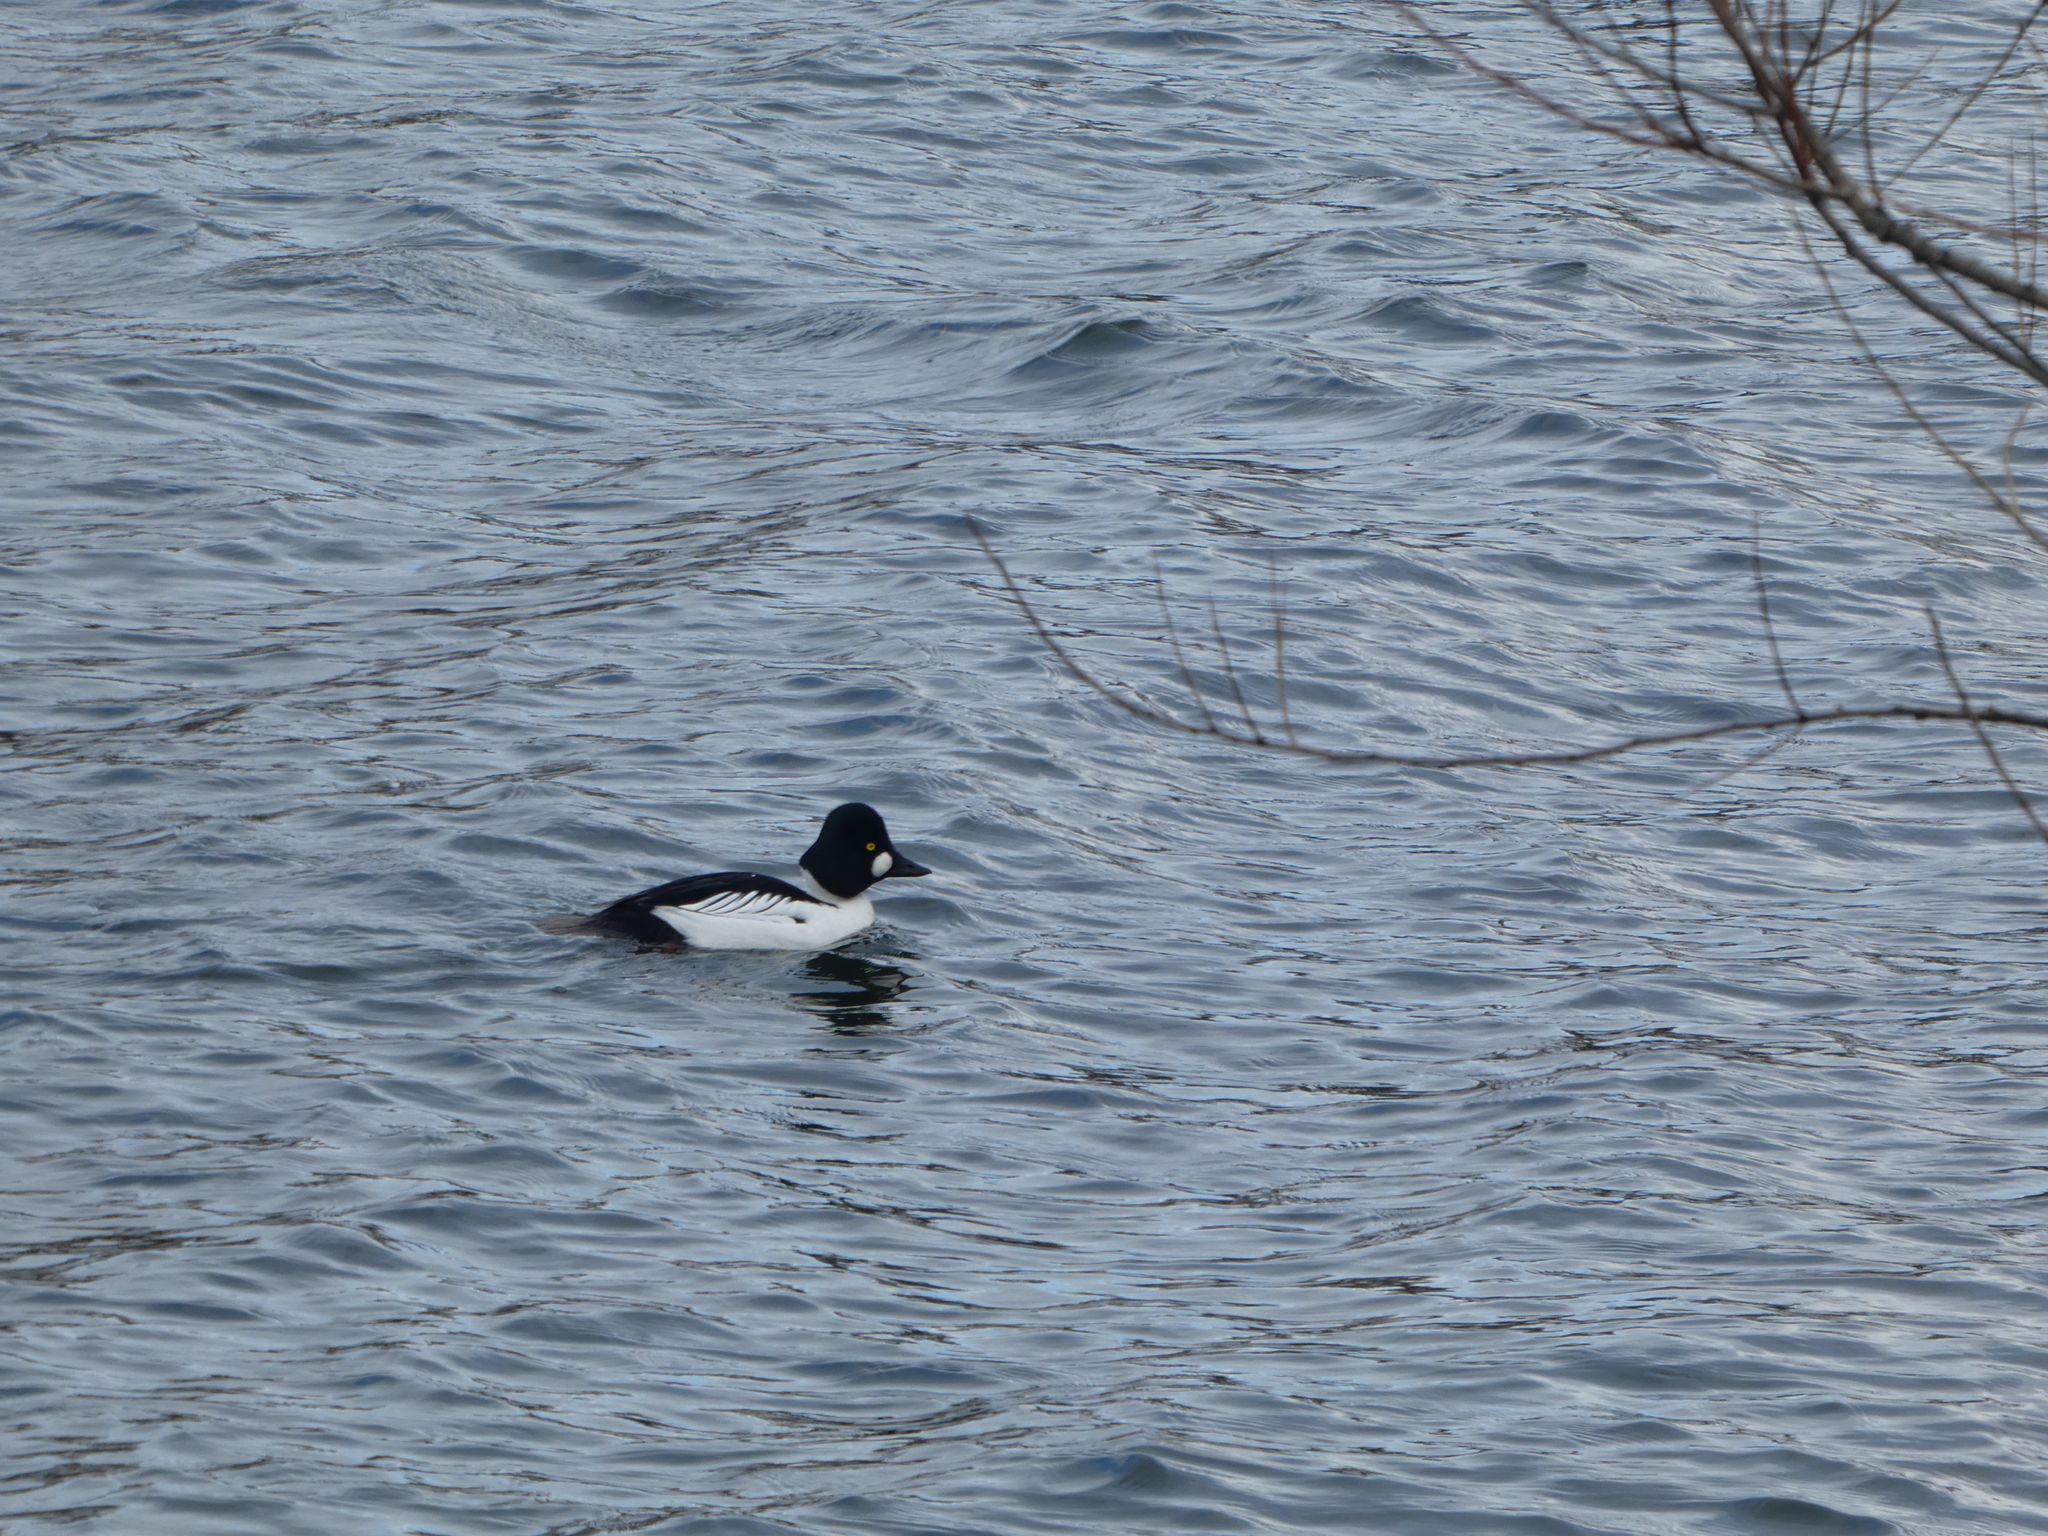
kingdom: Animalia
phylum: Chordata
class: Aves
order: Anseriformes
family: Anatidae
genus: Bucephala
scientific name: Bucephala clangula
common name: Common goldeneye
